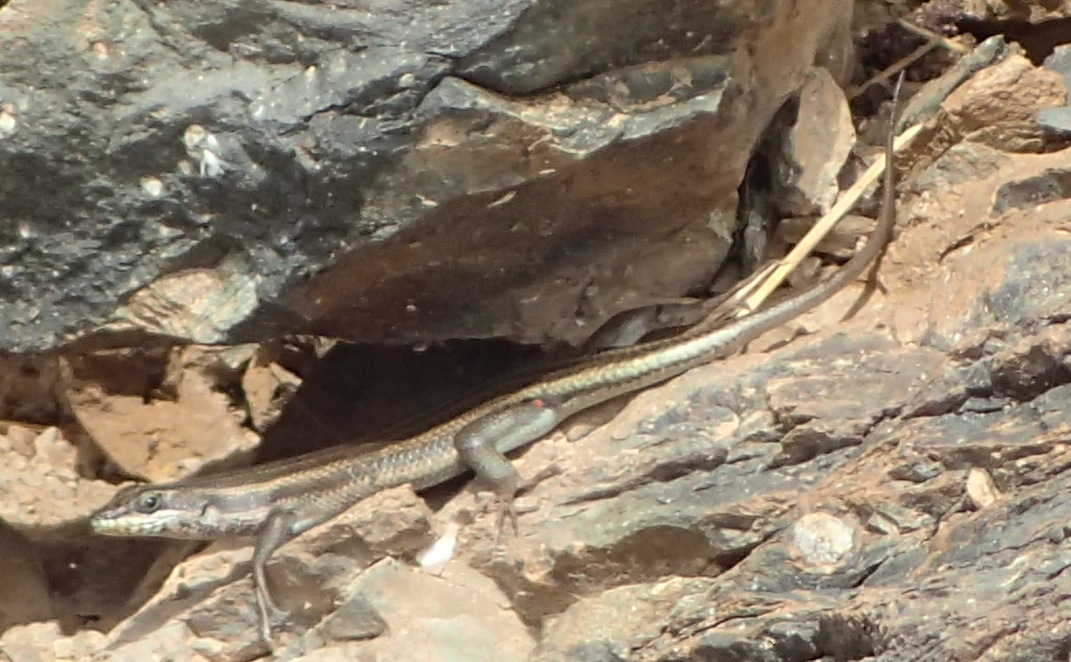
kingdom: Animalia
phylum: Chordata
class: Squamata
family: Scincidae
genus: Trachylepis
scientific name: Trachylepis sulcata
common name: Western rock skink
